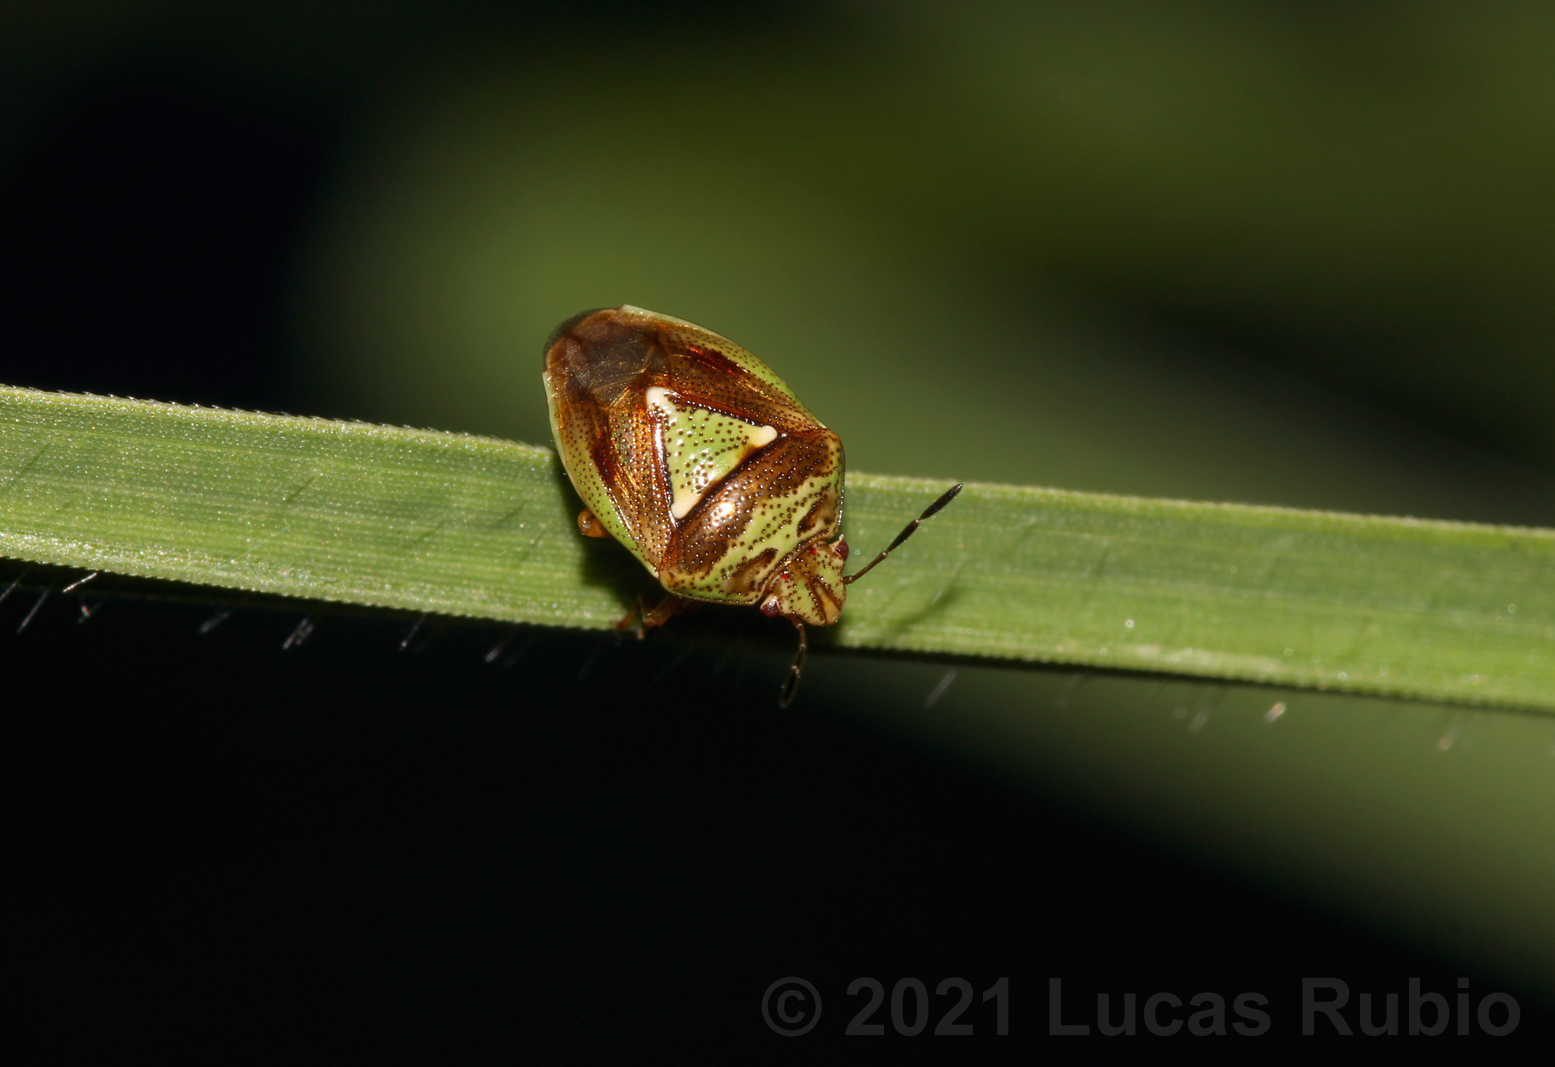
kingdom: Animalia
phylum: Arthropoda
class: Insecta
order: Hemiptera
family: Acanthosomatidae
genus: Hellica
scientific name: Hellica nitida
